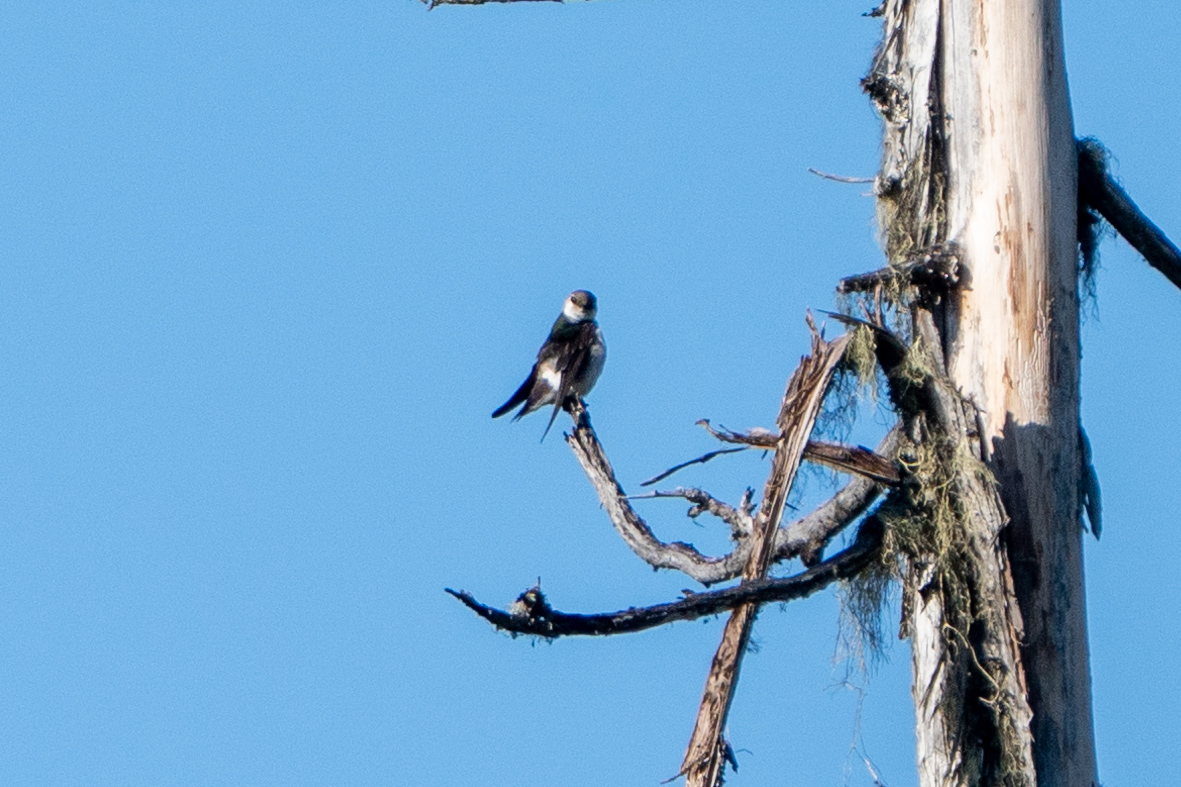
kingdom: Animalia
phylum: Chordata
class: Aves
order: Passeriformes
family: Hirundinidae
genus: Tachycineta
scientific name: Tachycineta thalassina
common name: Violet-green swallow
